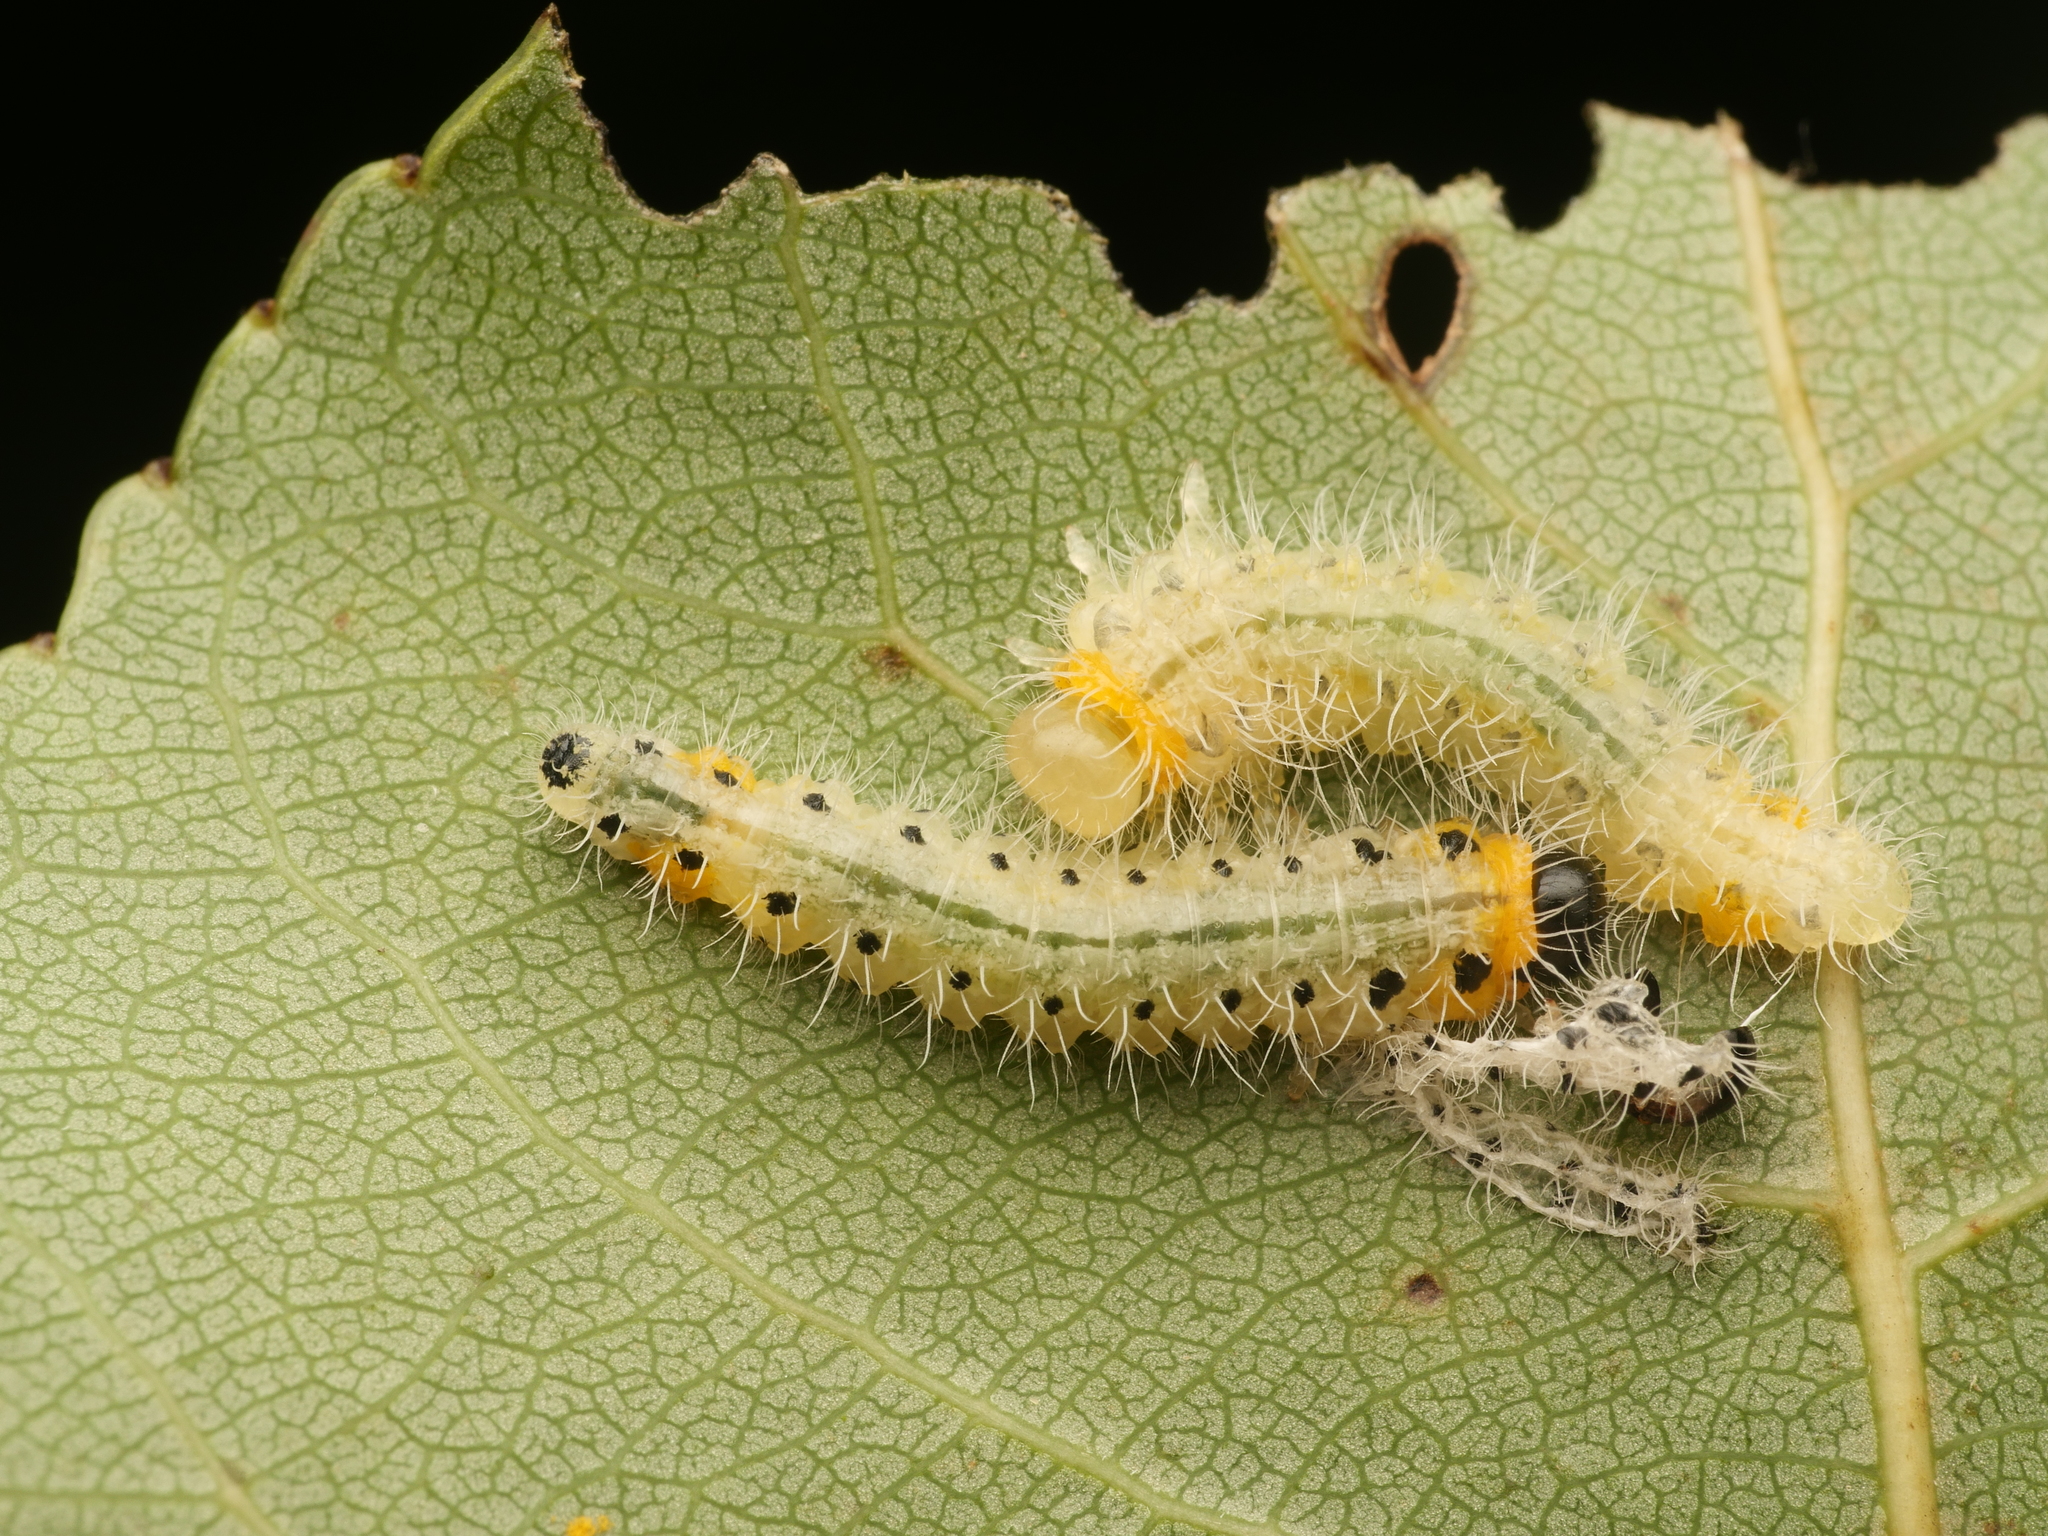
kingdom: Animalia
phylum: Arthropoda
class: Insecta
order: Hymenoptera
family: Tenthredinidae
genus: Cladius
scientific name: Cladius grandis
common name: Common sawfly
